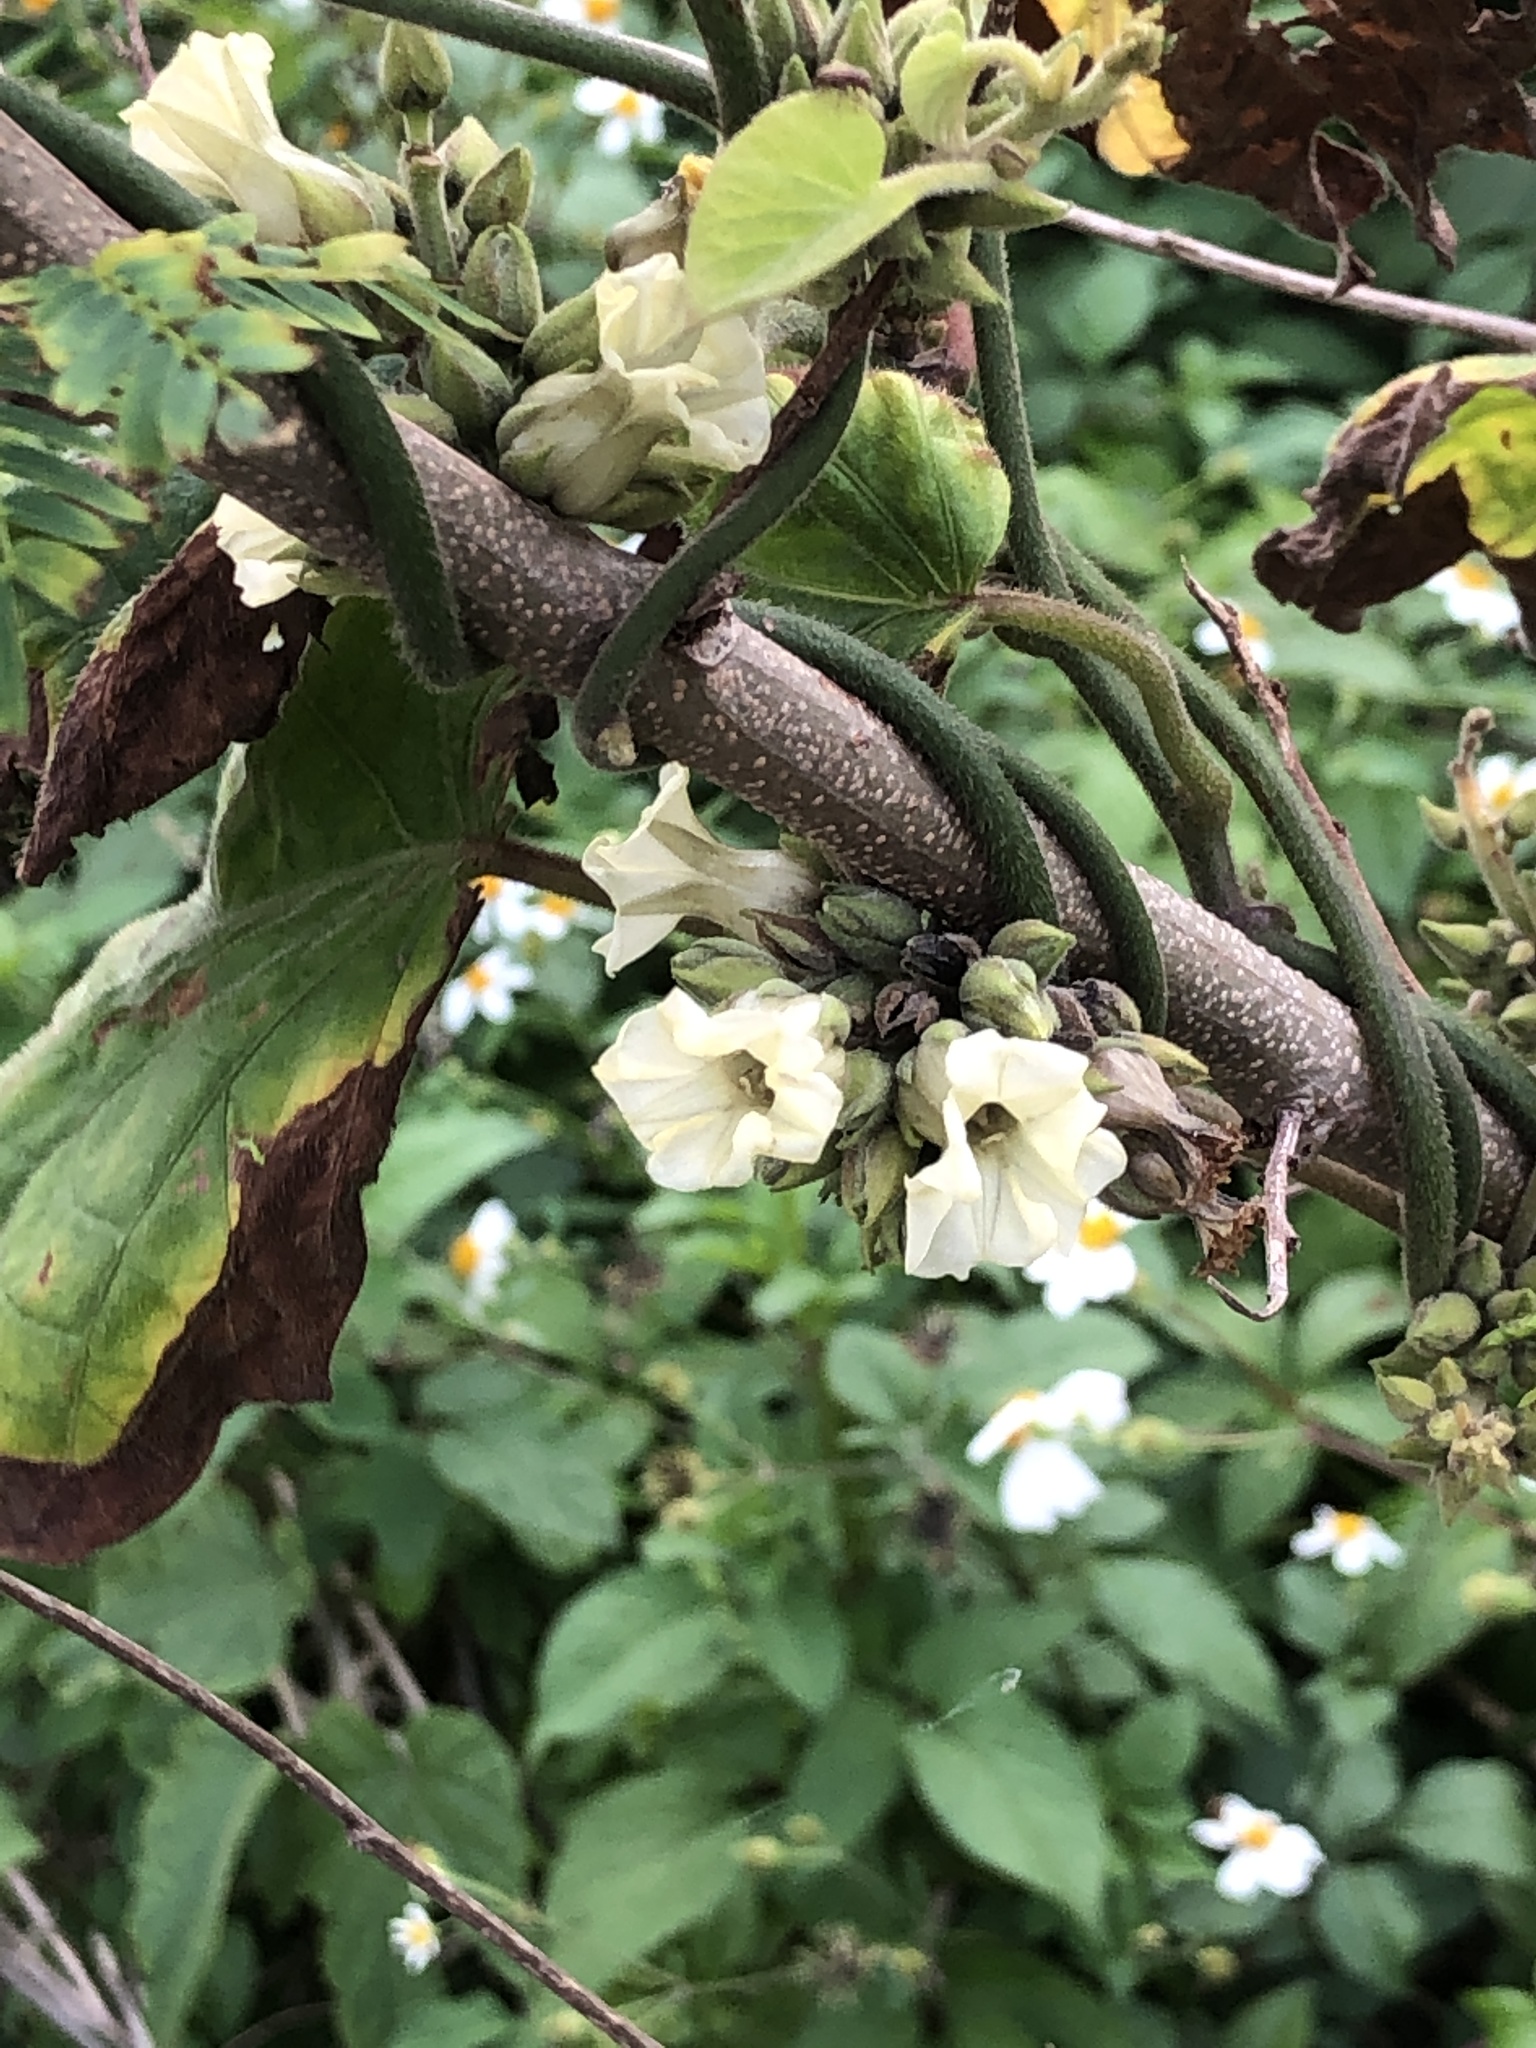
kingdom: Plantae
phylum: Tracheophyta
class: Magnoliopsida
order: Solanales
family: Convolvulaceae
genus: Lepistemon
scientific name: Lepistemon binectarifer
